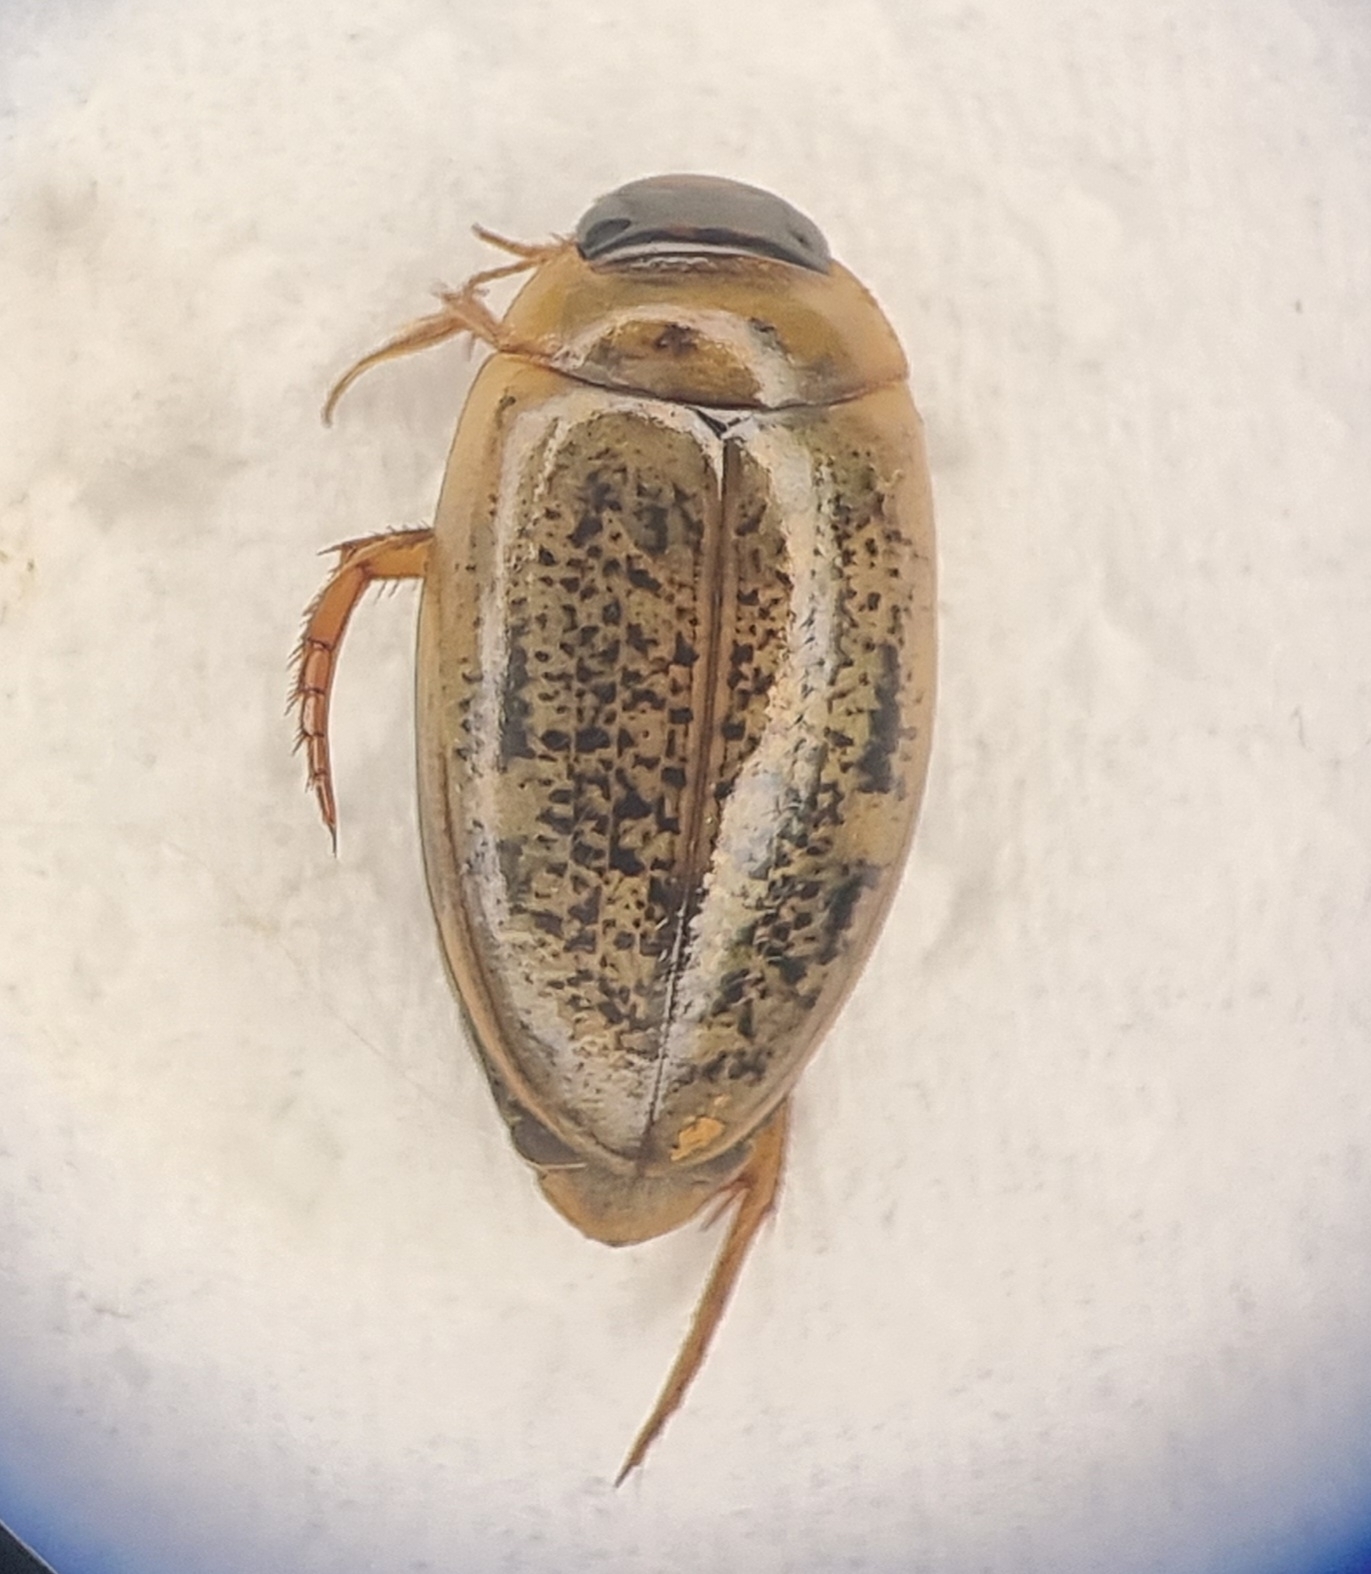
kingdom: Animalia
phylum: Arthropoda
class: Insecta
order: Coleoptera
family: Dytiscidae
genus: Agabus
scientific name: Agabus nebulosus
